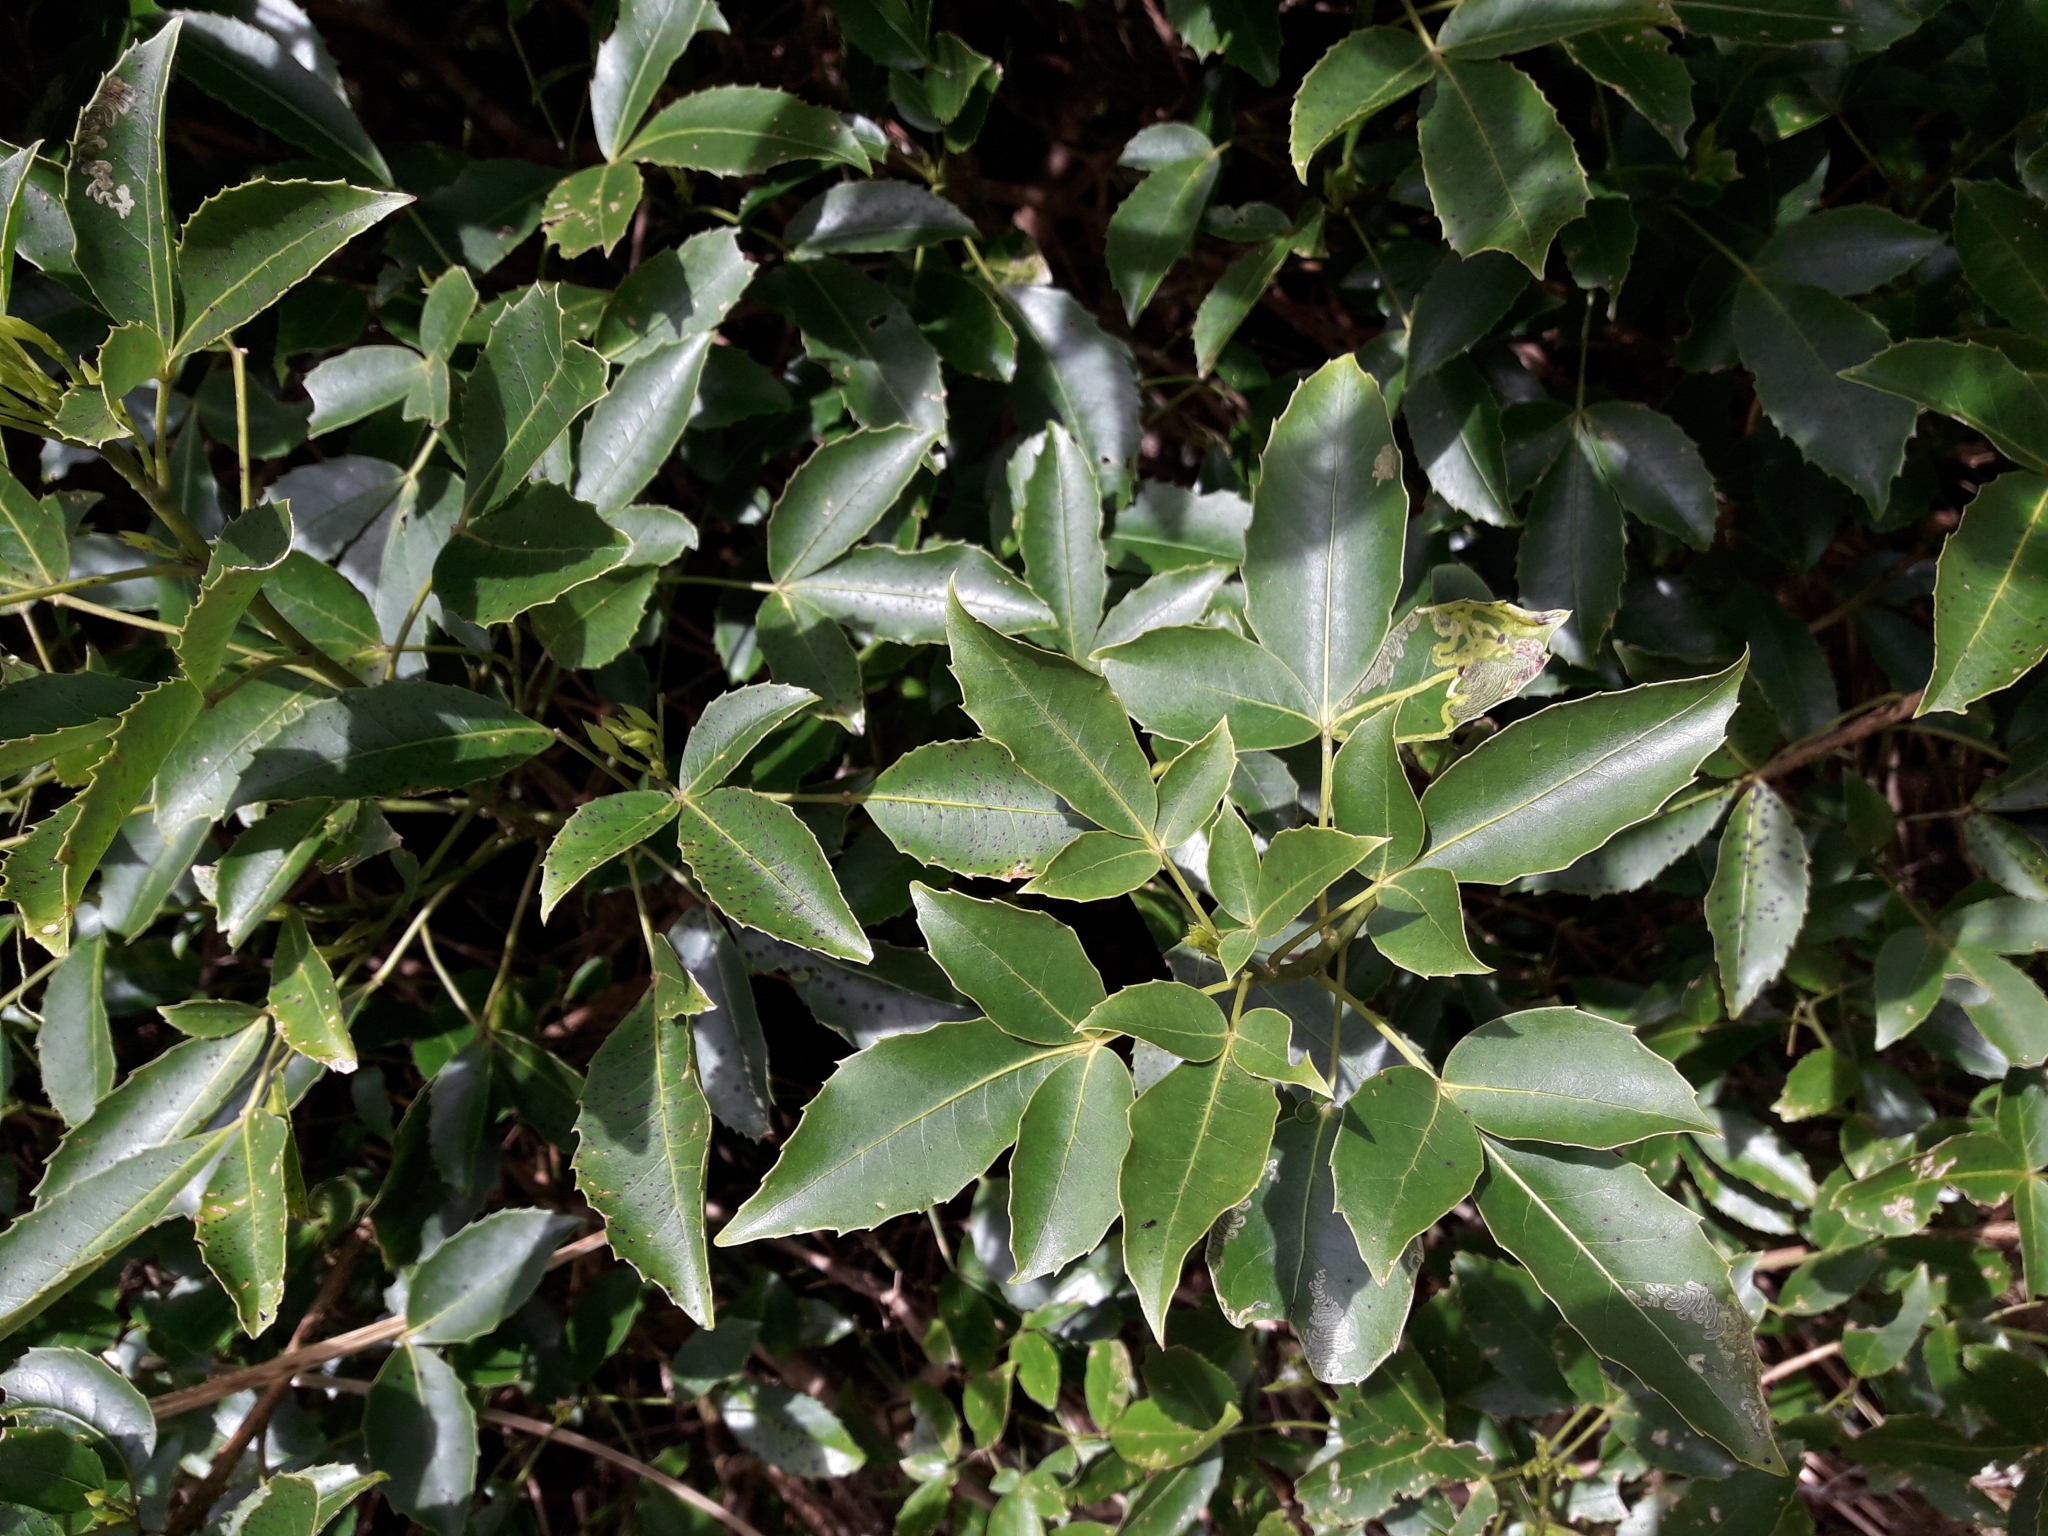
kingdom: Plantae
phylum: Tracheophyta
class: Magnoliopsida
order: Apiales
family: Araliaceae
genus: Raukaua
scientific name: Raukaua simplex
